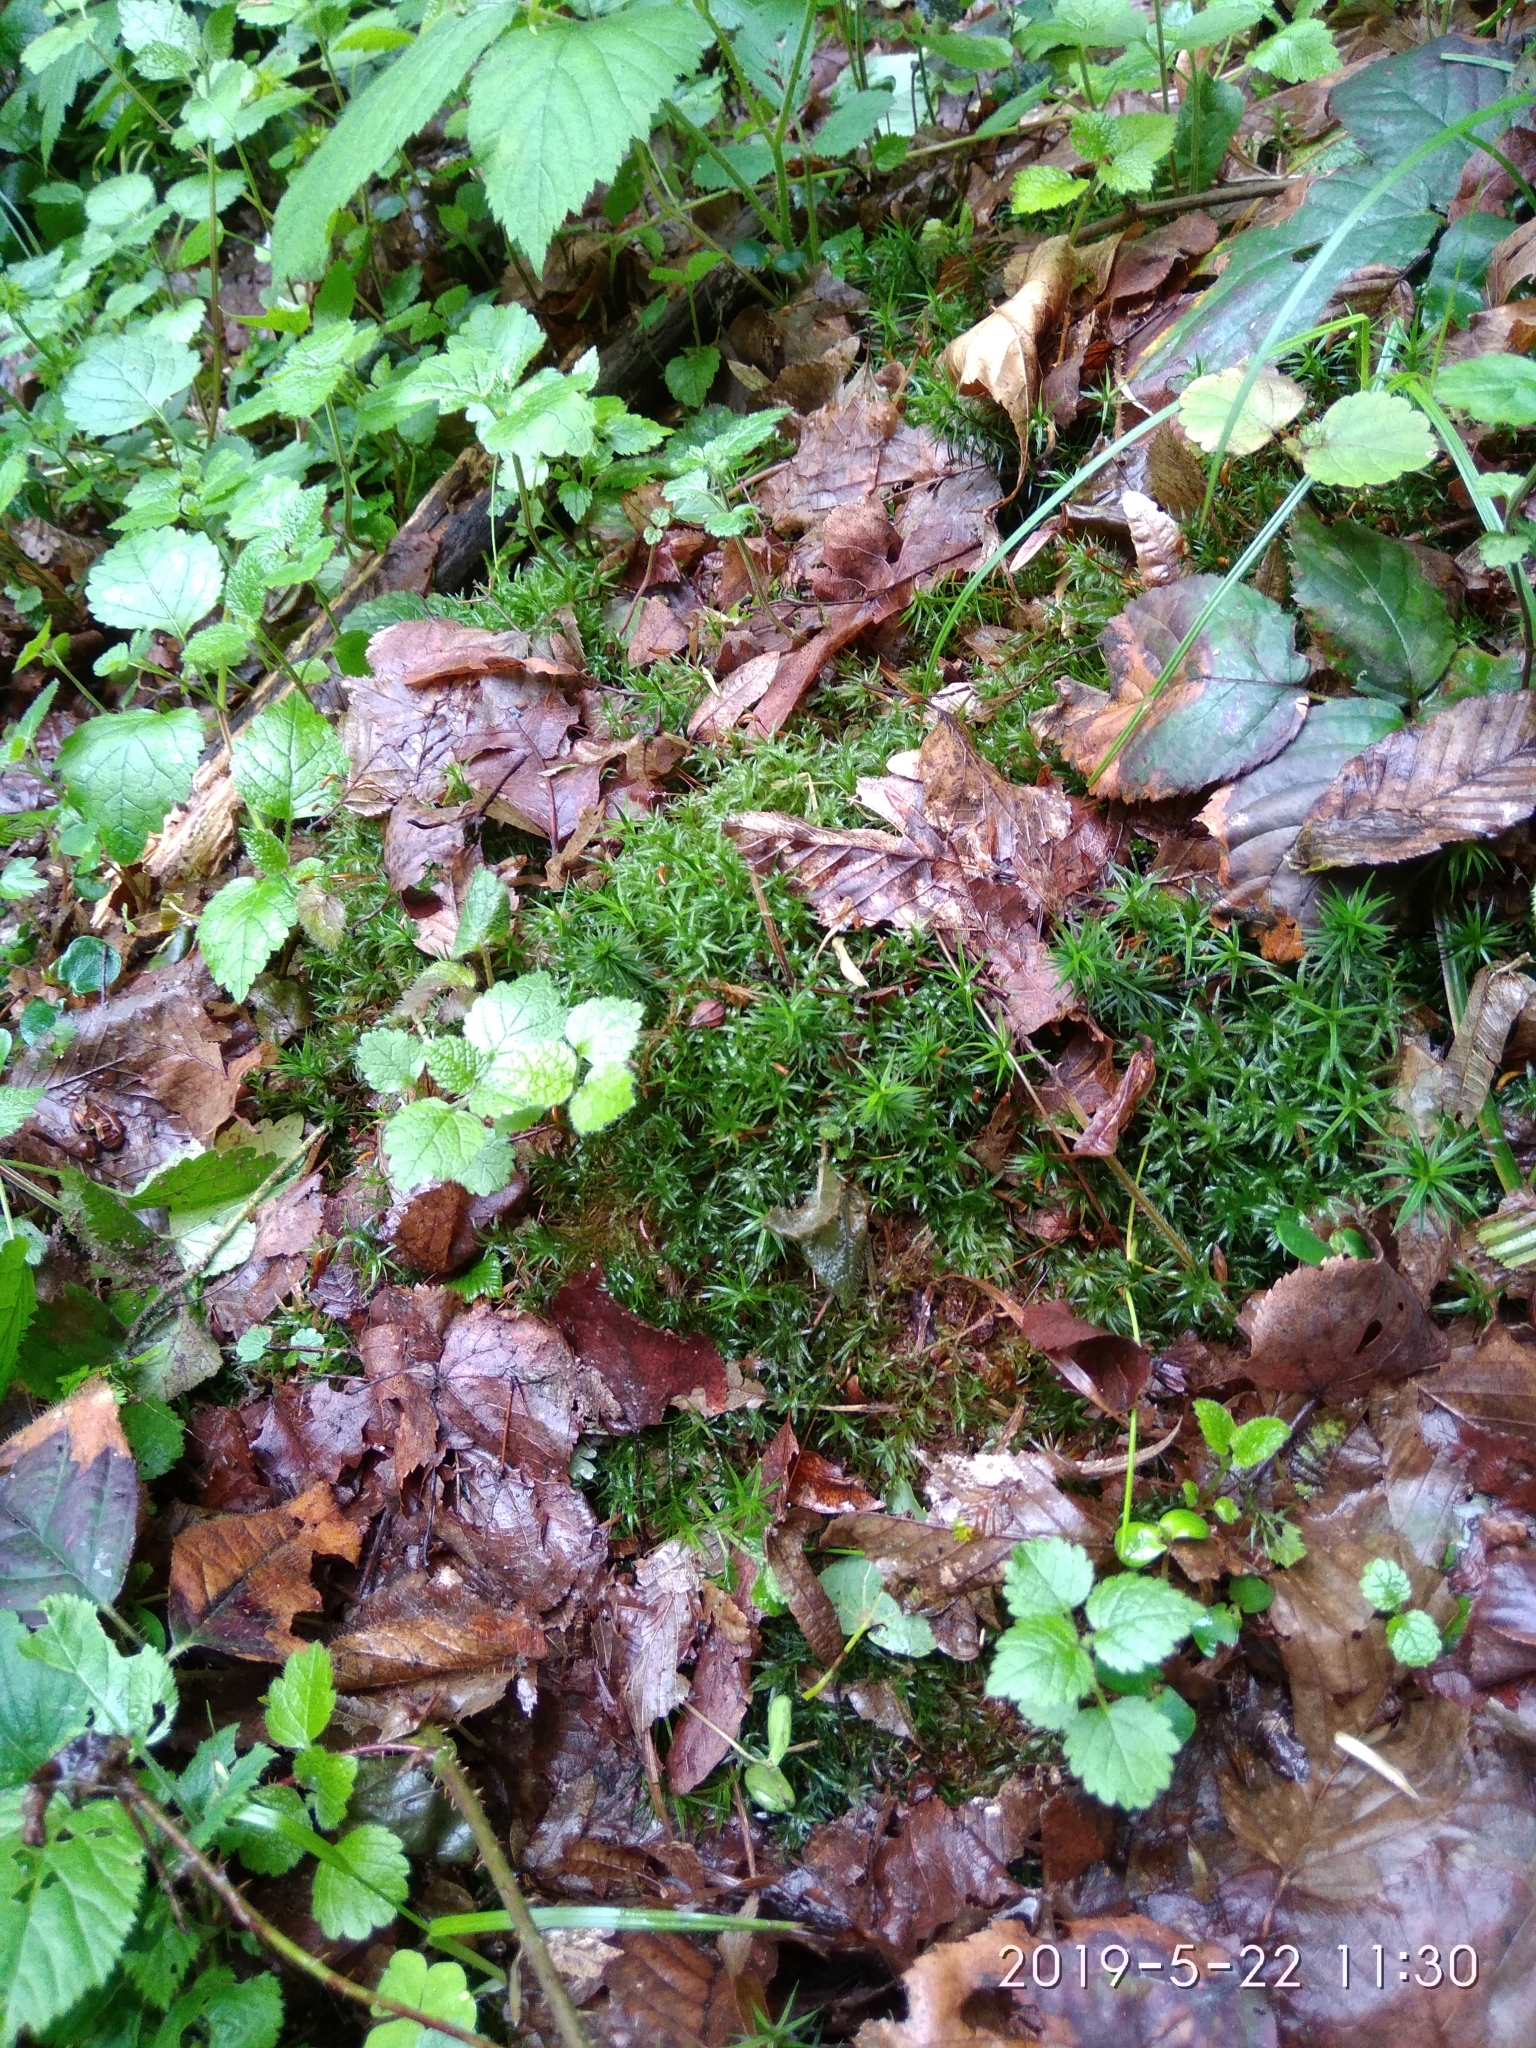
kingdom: Plantae
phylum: Bryophyta
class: Polytrichopsida
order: Polytrichales
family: Polytrichaceae
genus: Polytrichum
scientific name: Polytrichum formosum
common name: Bank haircap moss
